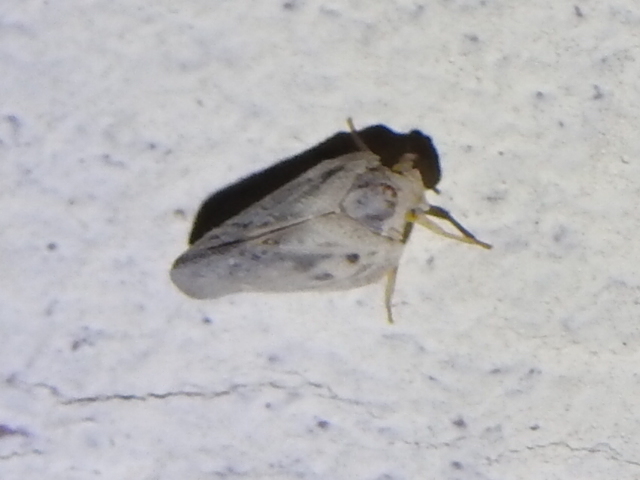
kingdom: Animalia
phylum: Arthropoda
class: Insecta
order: Hemiptera
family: Flatidae
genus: Metcalfa
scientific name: Metcalfa pruinosa
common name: Citrus flatid planthopper
